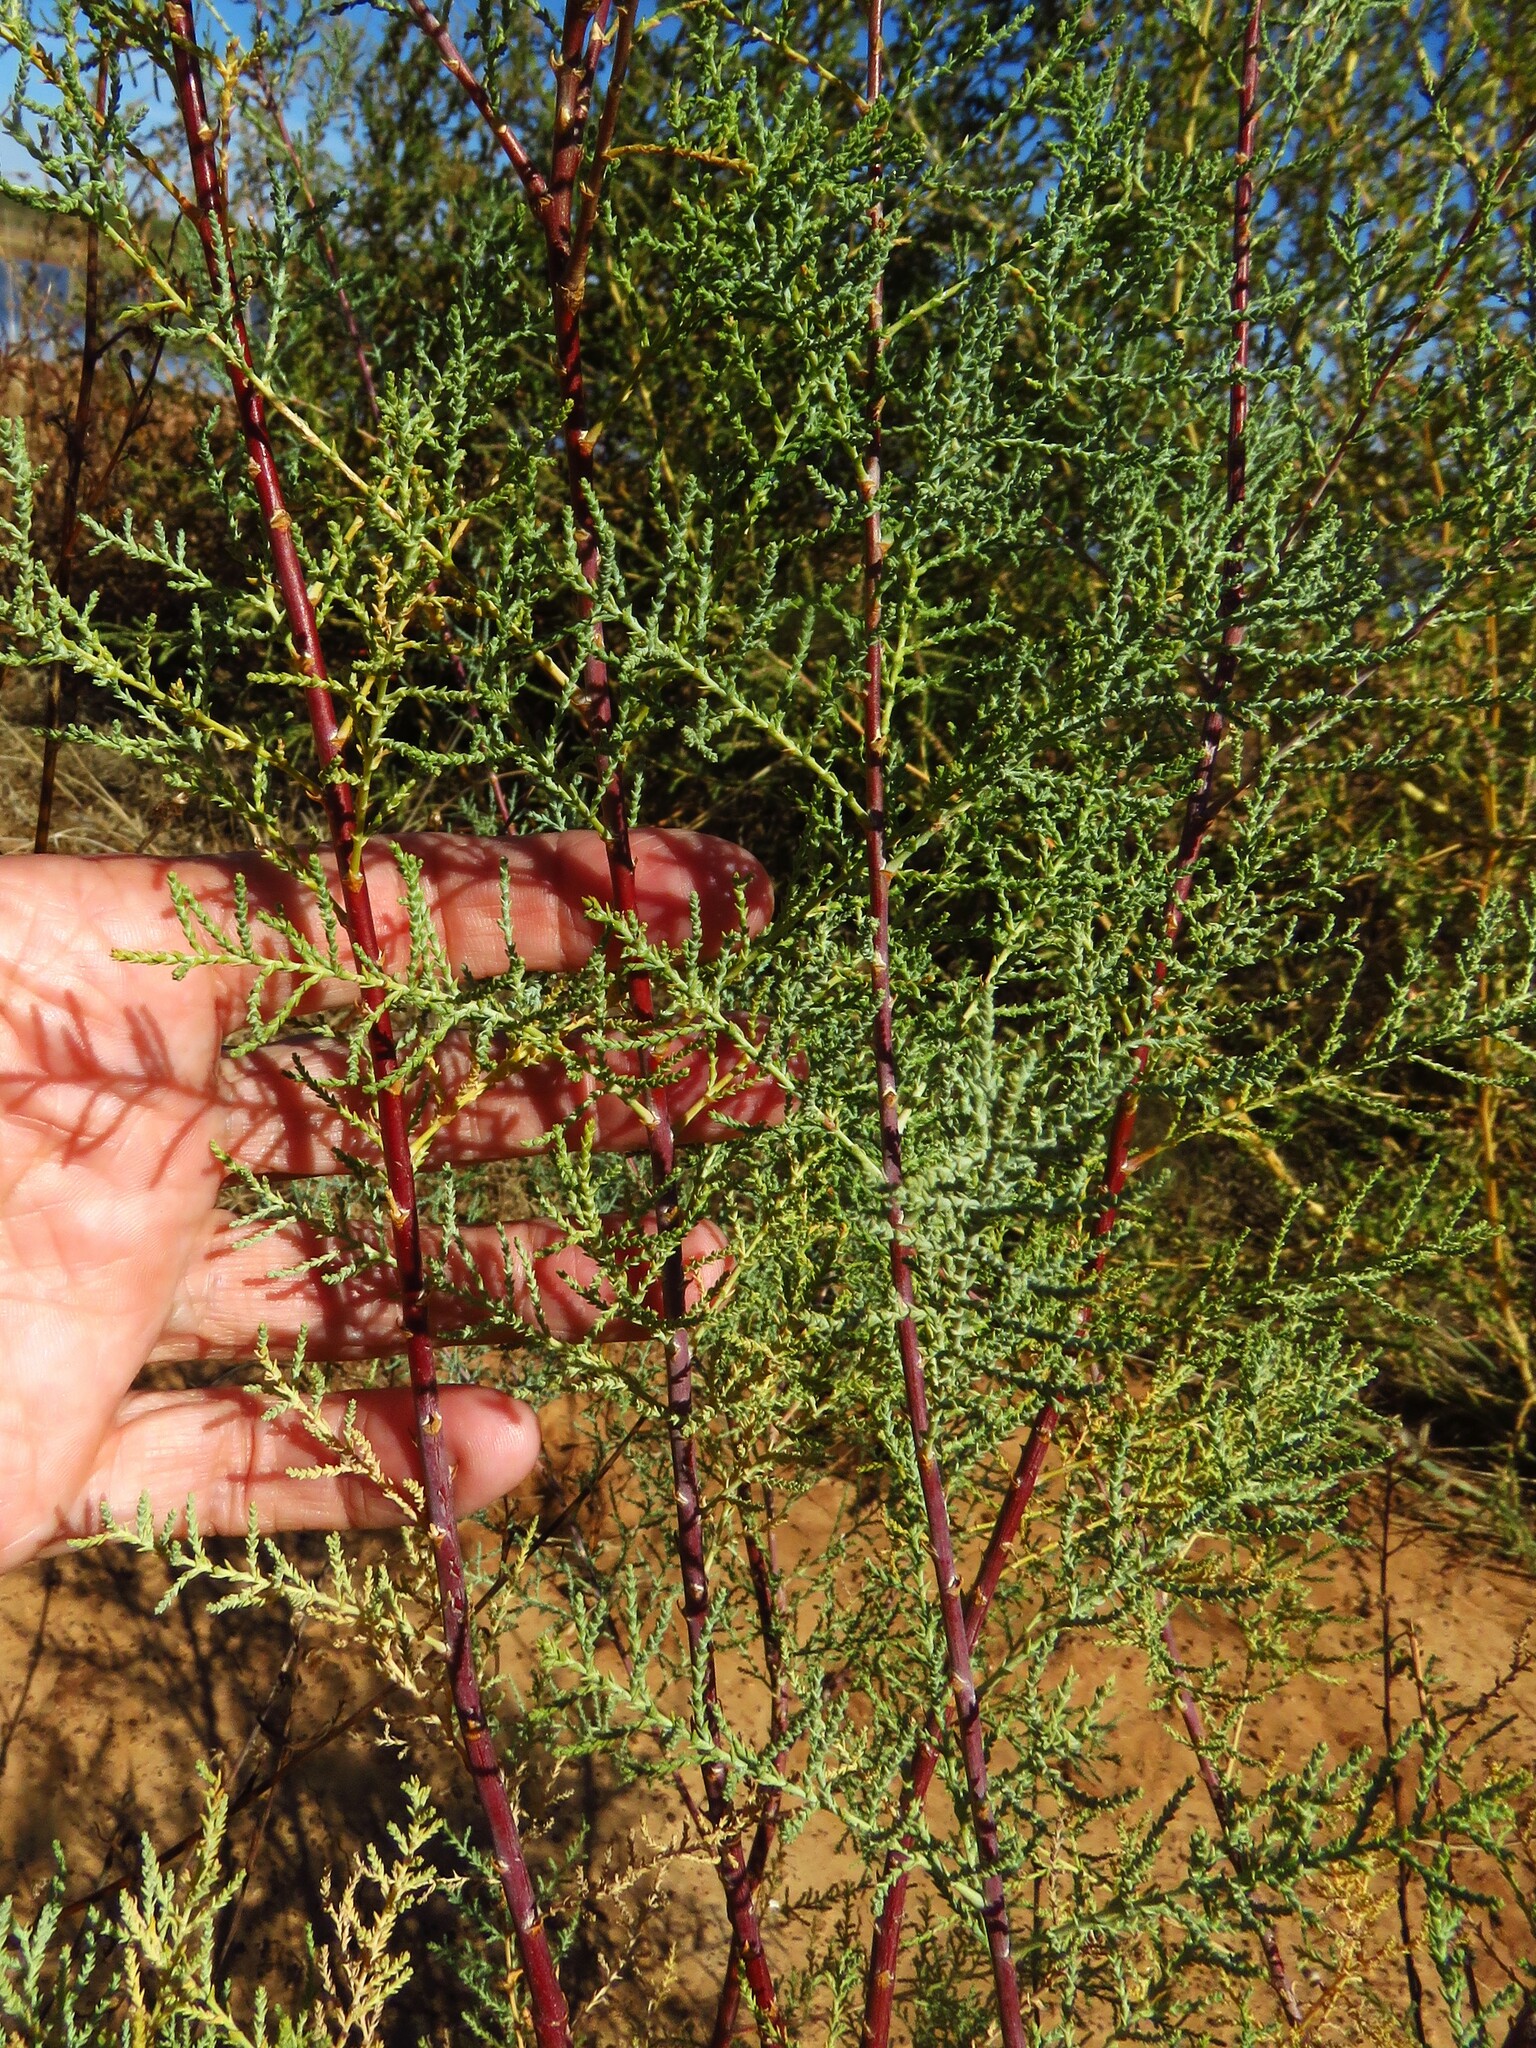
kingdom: Plantae
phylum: Tracheophyta
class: Magnoliopsida
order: Caryophyllales
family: Tamaricaceae
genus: Tamarix
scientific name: Tamarix ramosissima
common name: Pink tamarisk
